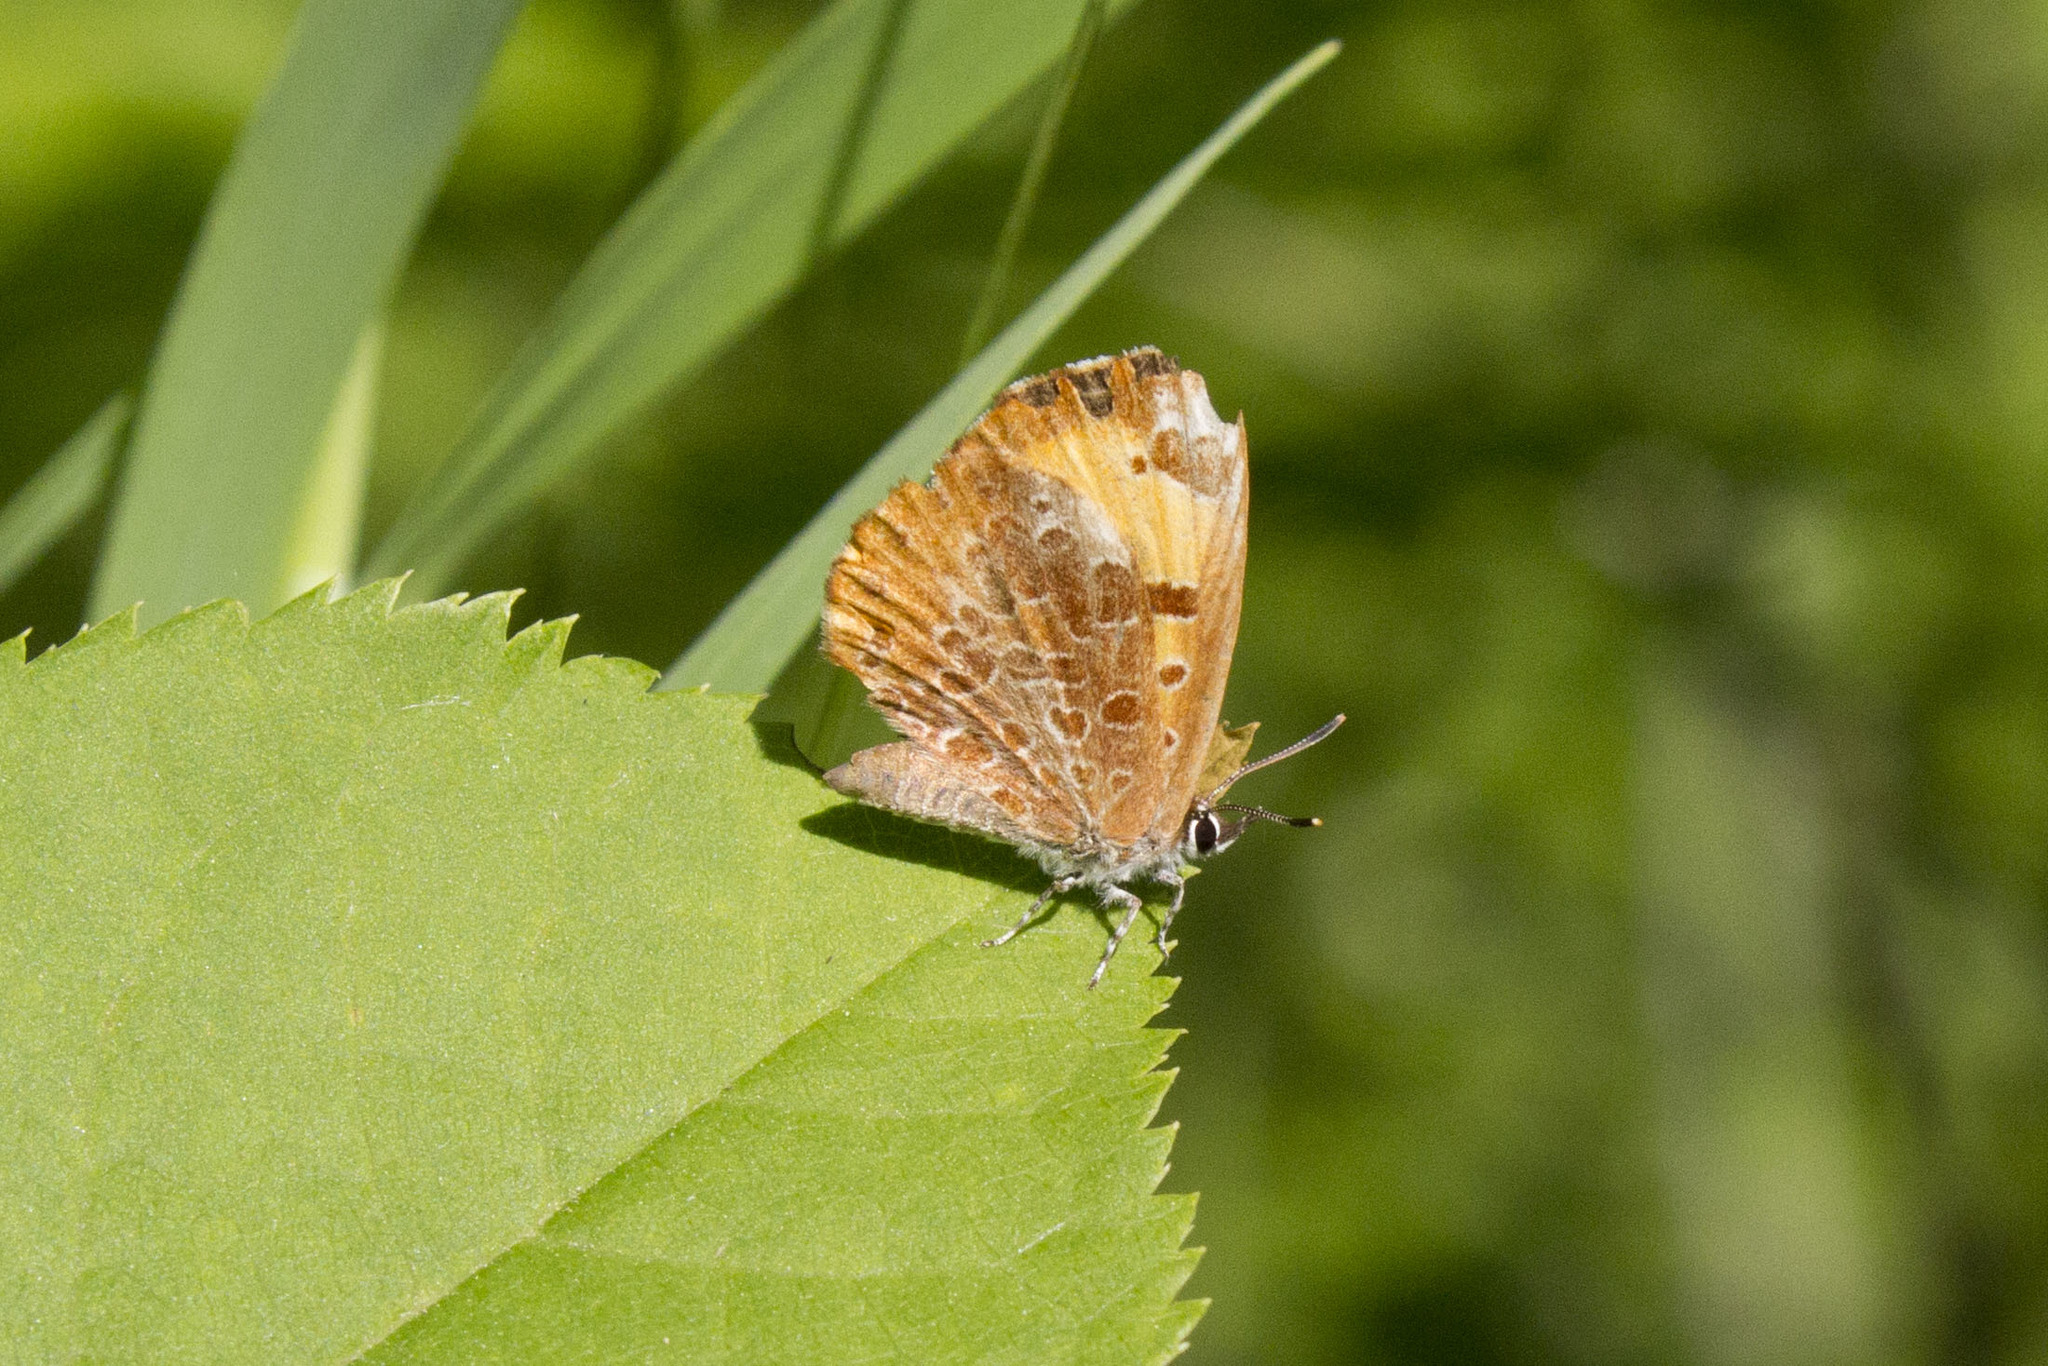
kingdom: Animalia
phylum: Arthropoda
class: Insecta
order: Lepidoptera
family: Lycaenidae
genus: Feniseca
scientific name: Feniseca tarquinius
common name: Harvester
